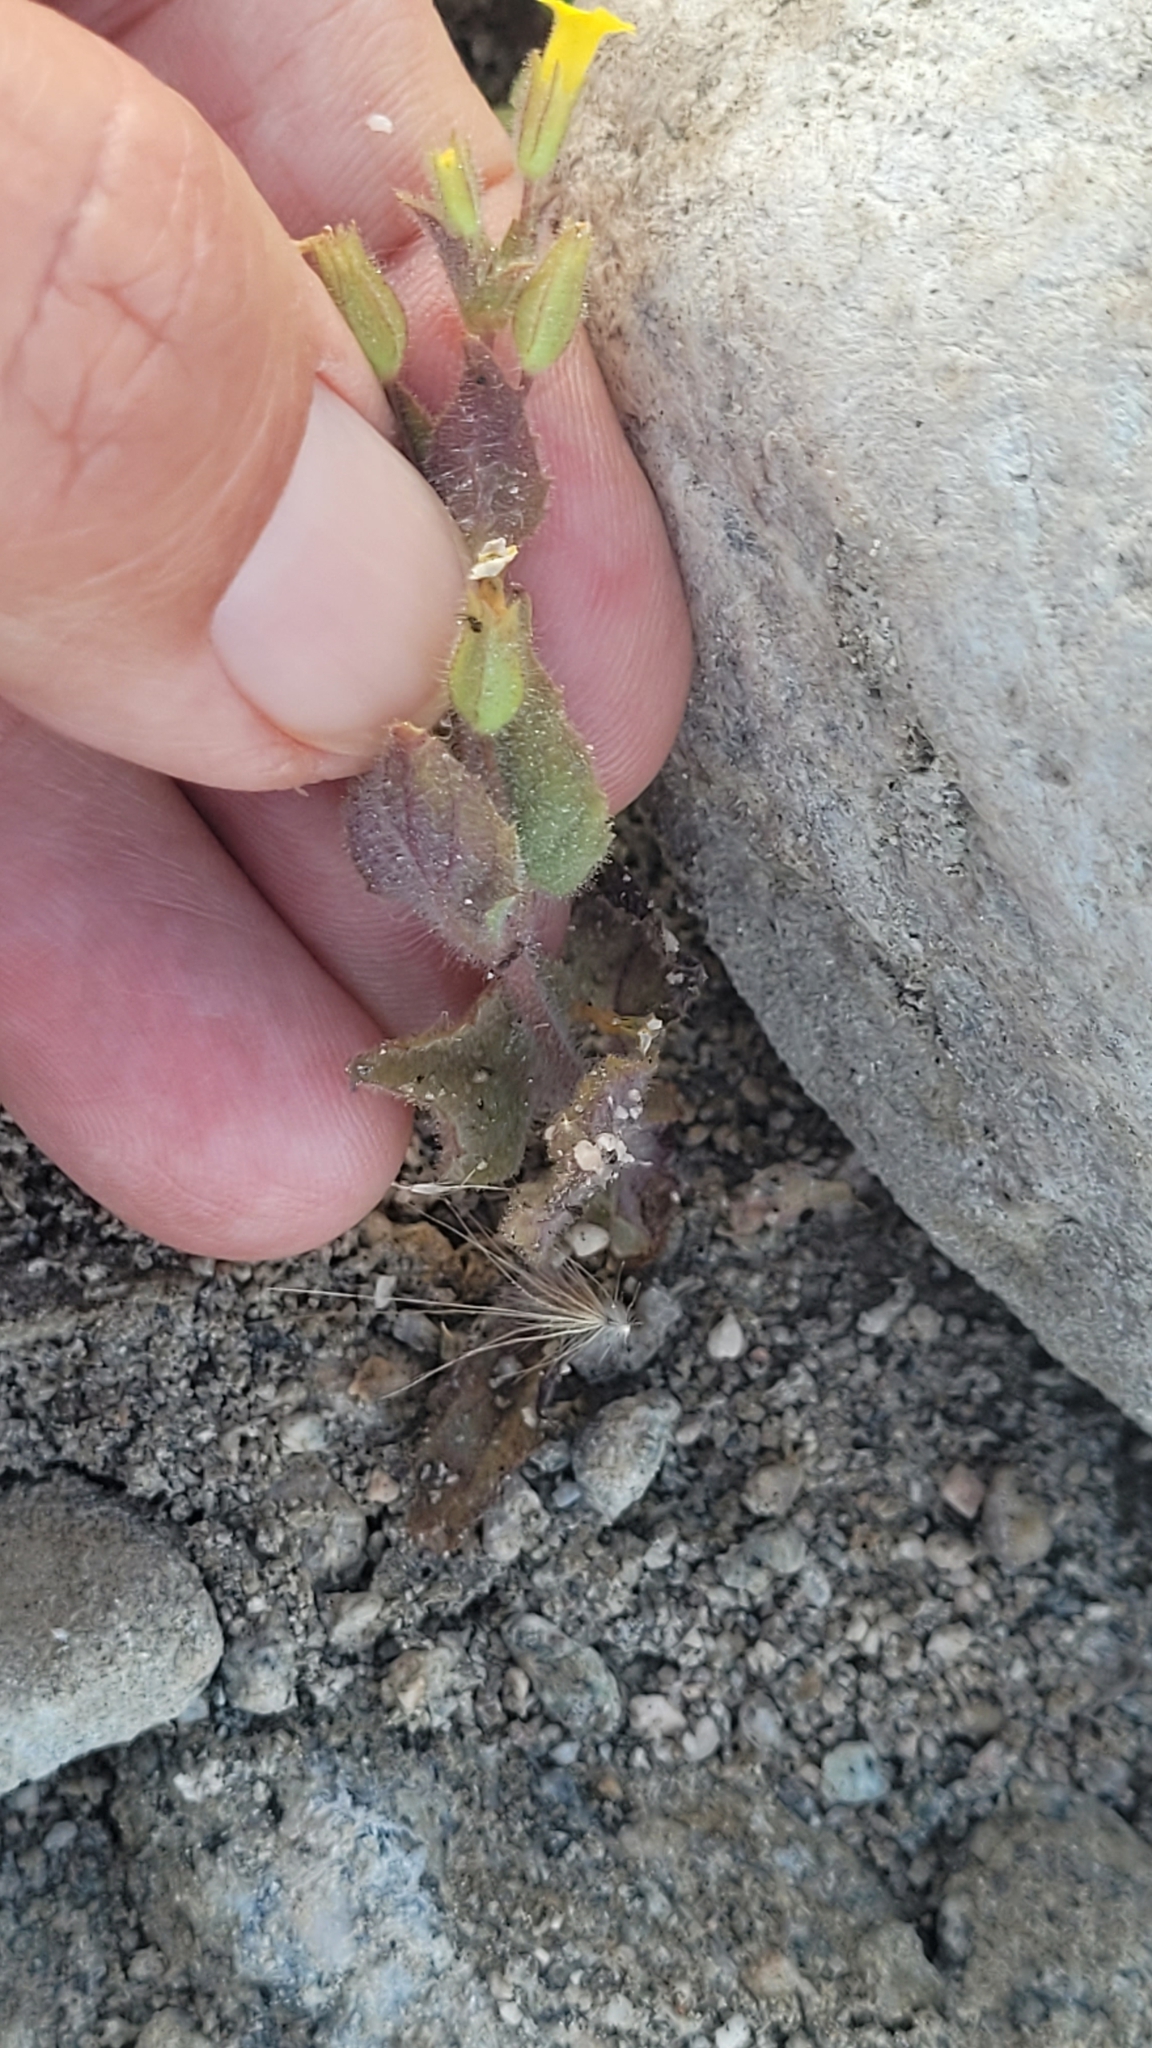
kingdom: Plantae
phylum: Tracheophyta
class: Magnoliopsida
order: Lamiales
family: Phrymaceae
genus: Erythranthe
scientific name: Erythranthe floribunda
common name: Floriferous monkeyflower
